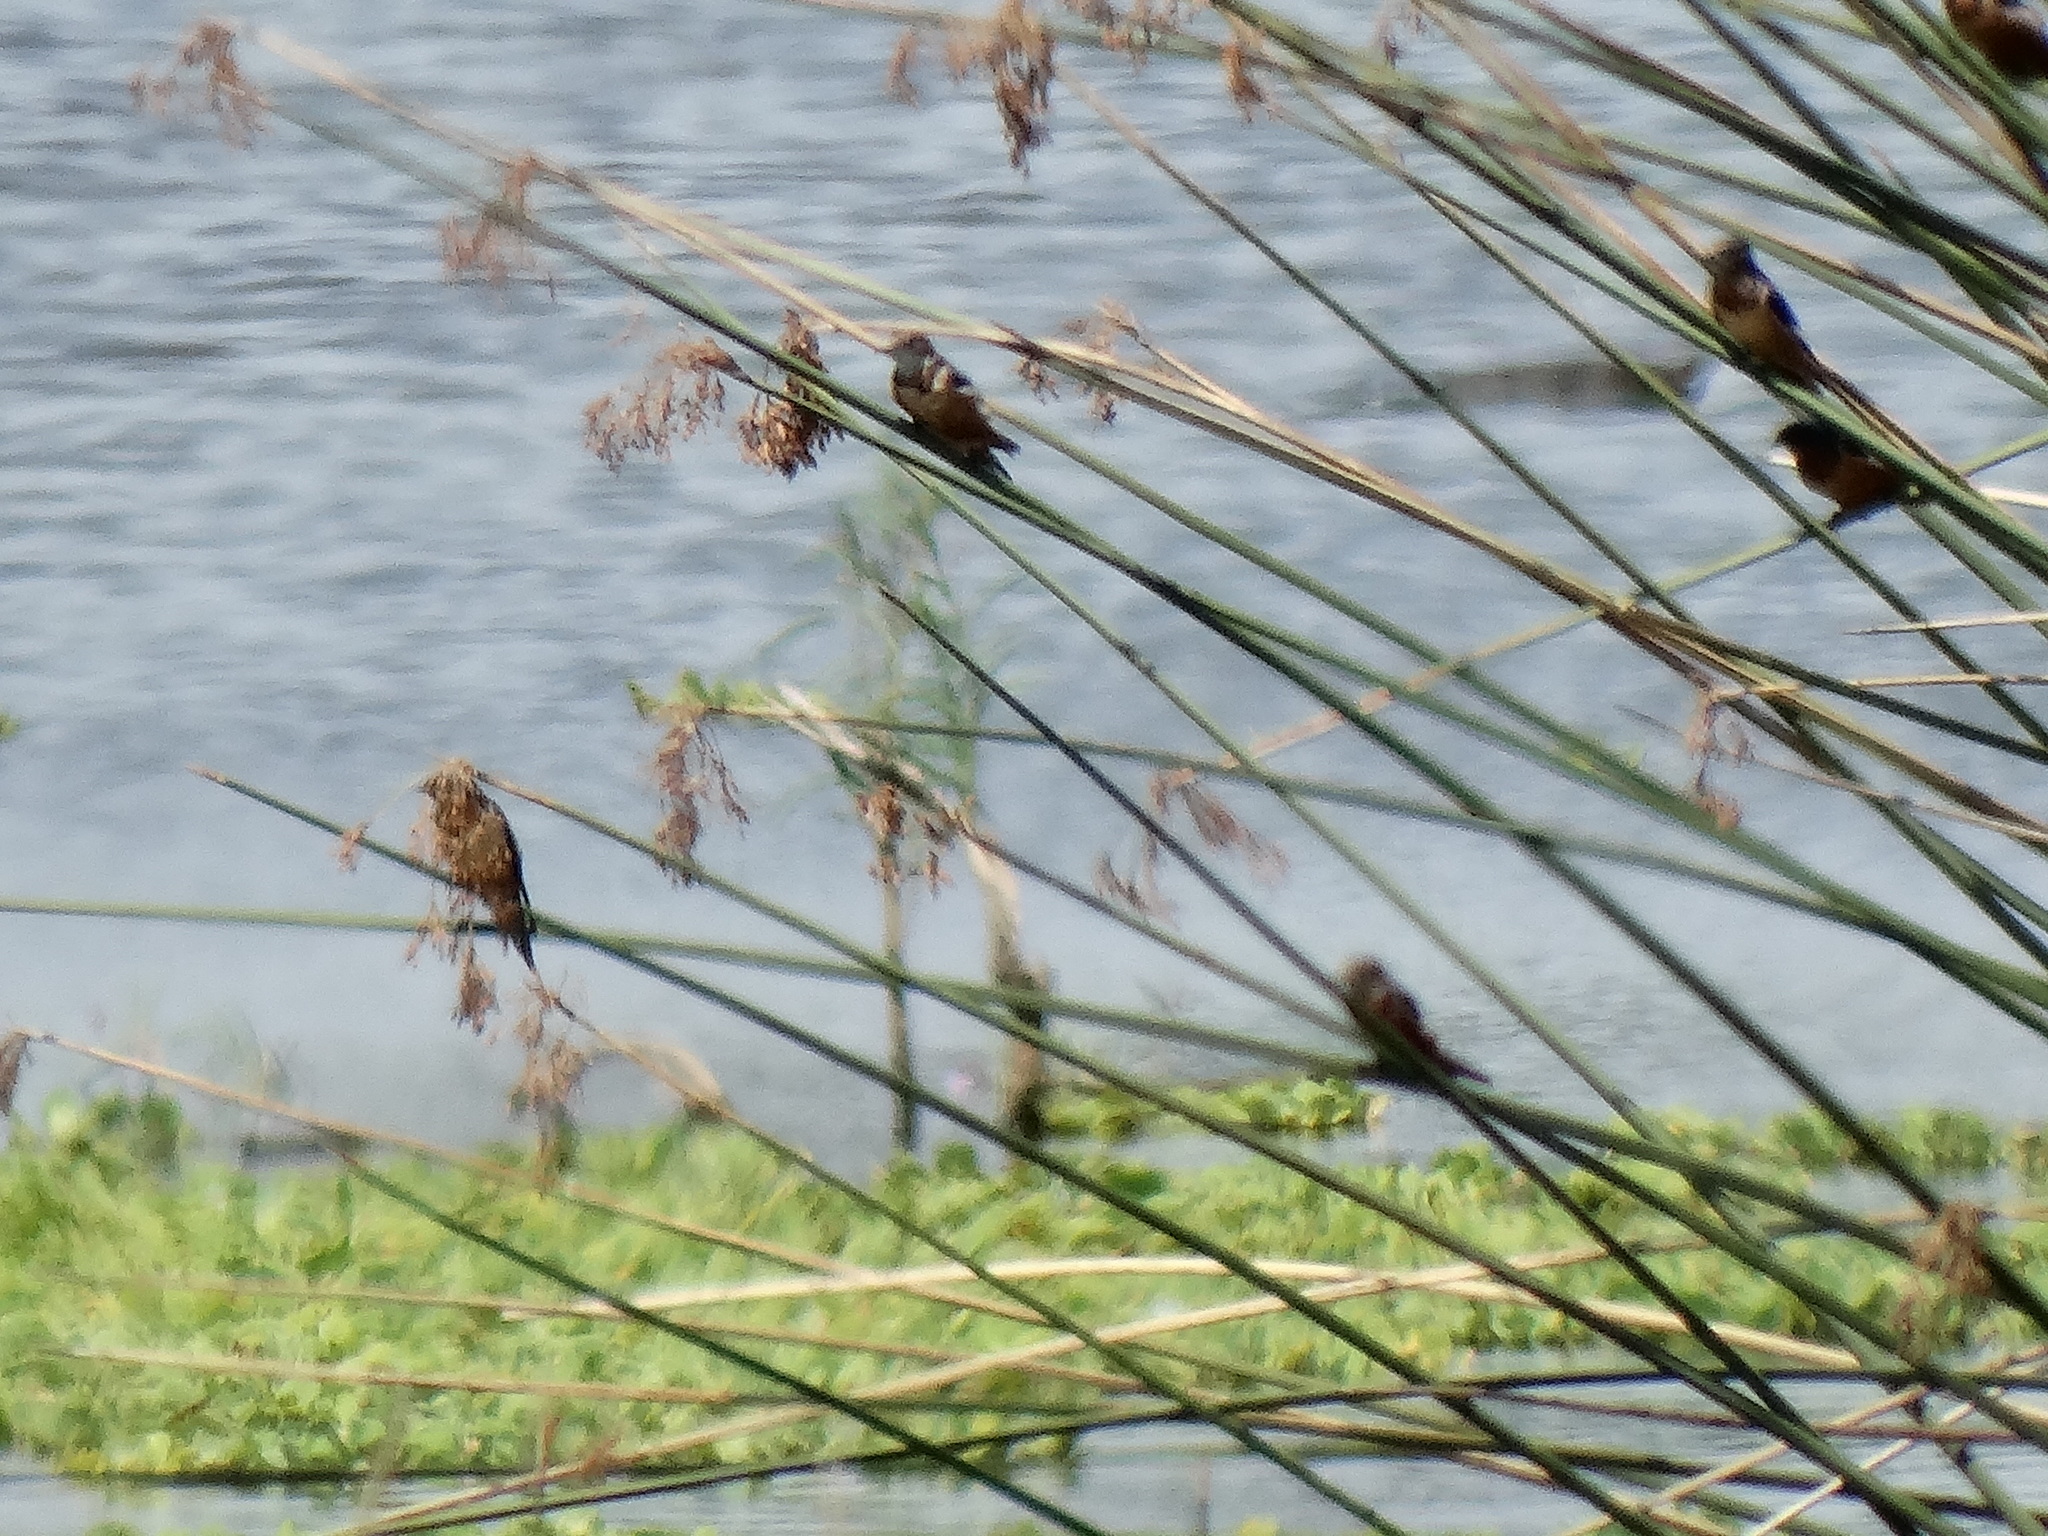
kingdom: Animalia
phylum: Chordata
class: Aves
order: Passeriformes
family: Hirundinidae
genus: Hirundo
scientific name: Hirundo rustica
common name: Barn swallow
